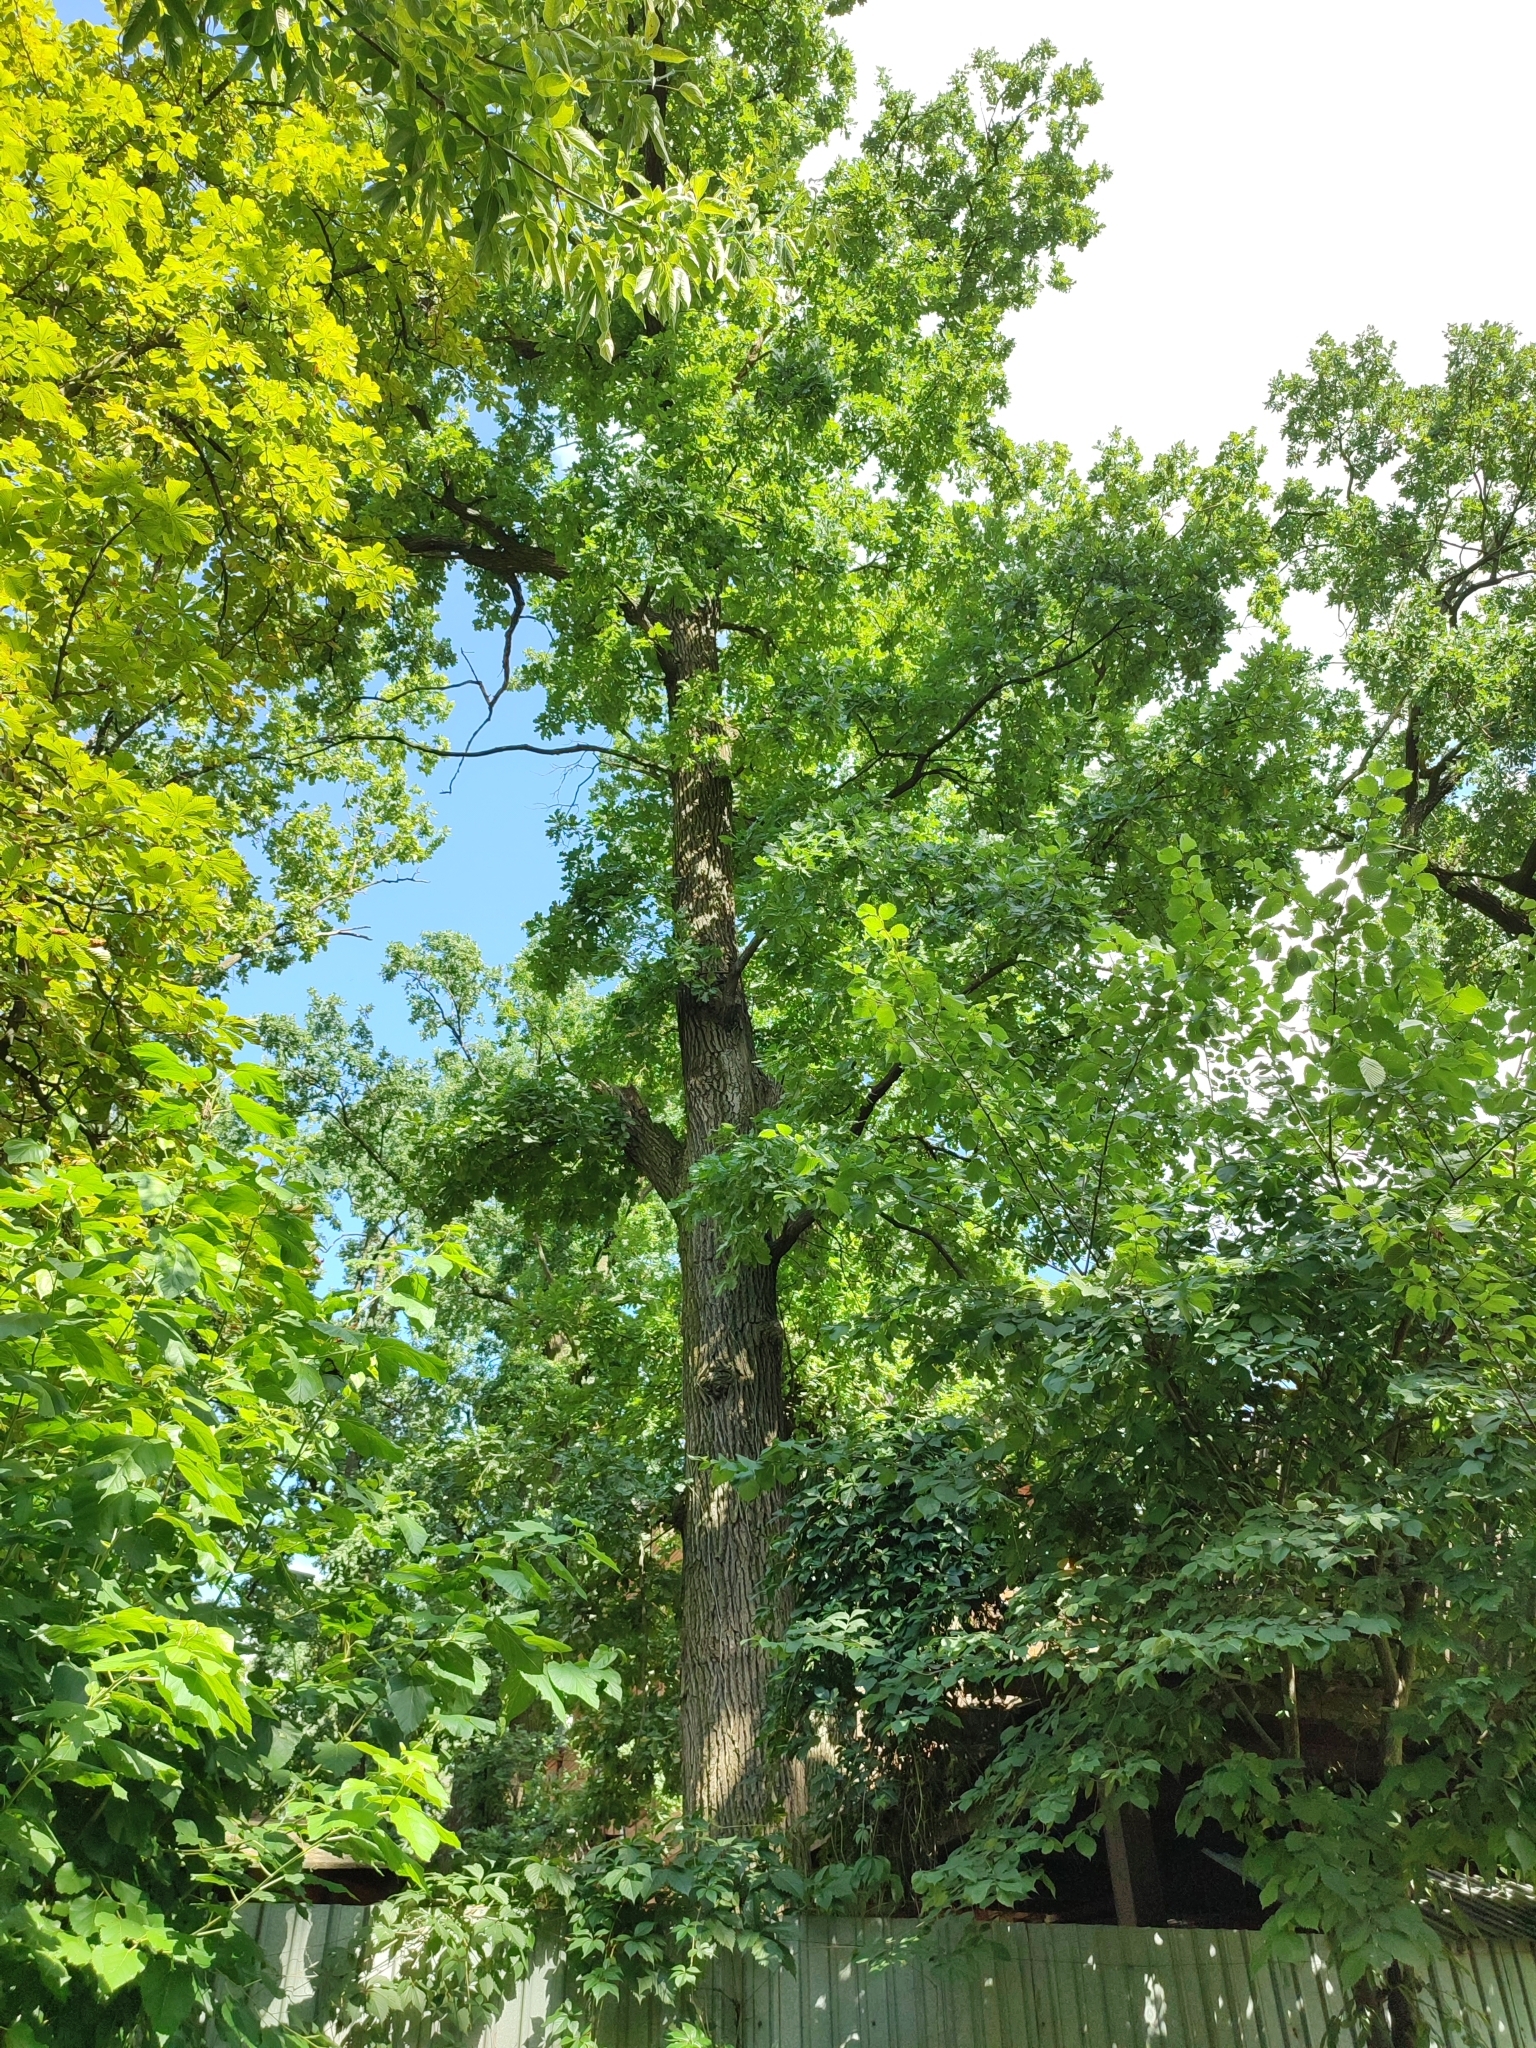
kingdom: Plantae
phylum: Tracheophyta
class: Magnoliopsida
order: Fagales
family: Fagaceae
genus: Quercus
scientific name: Quercus robur
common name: Pedunculate oak
